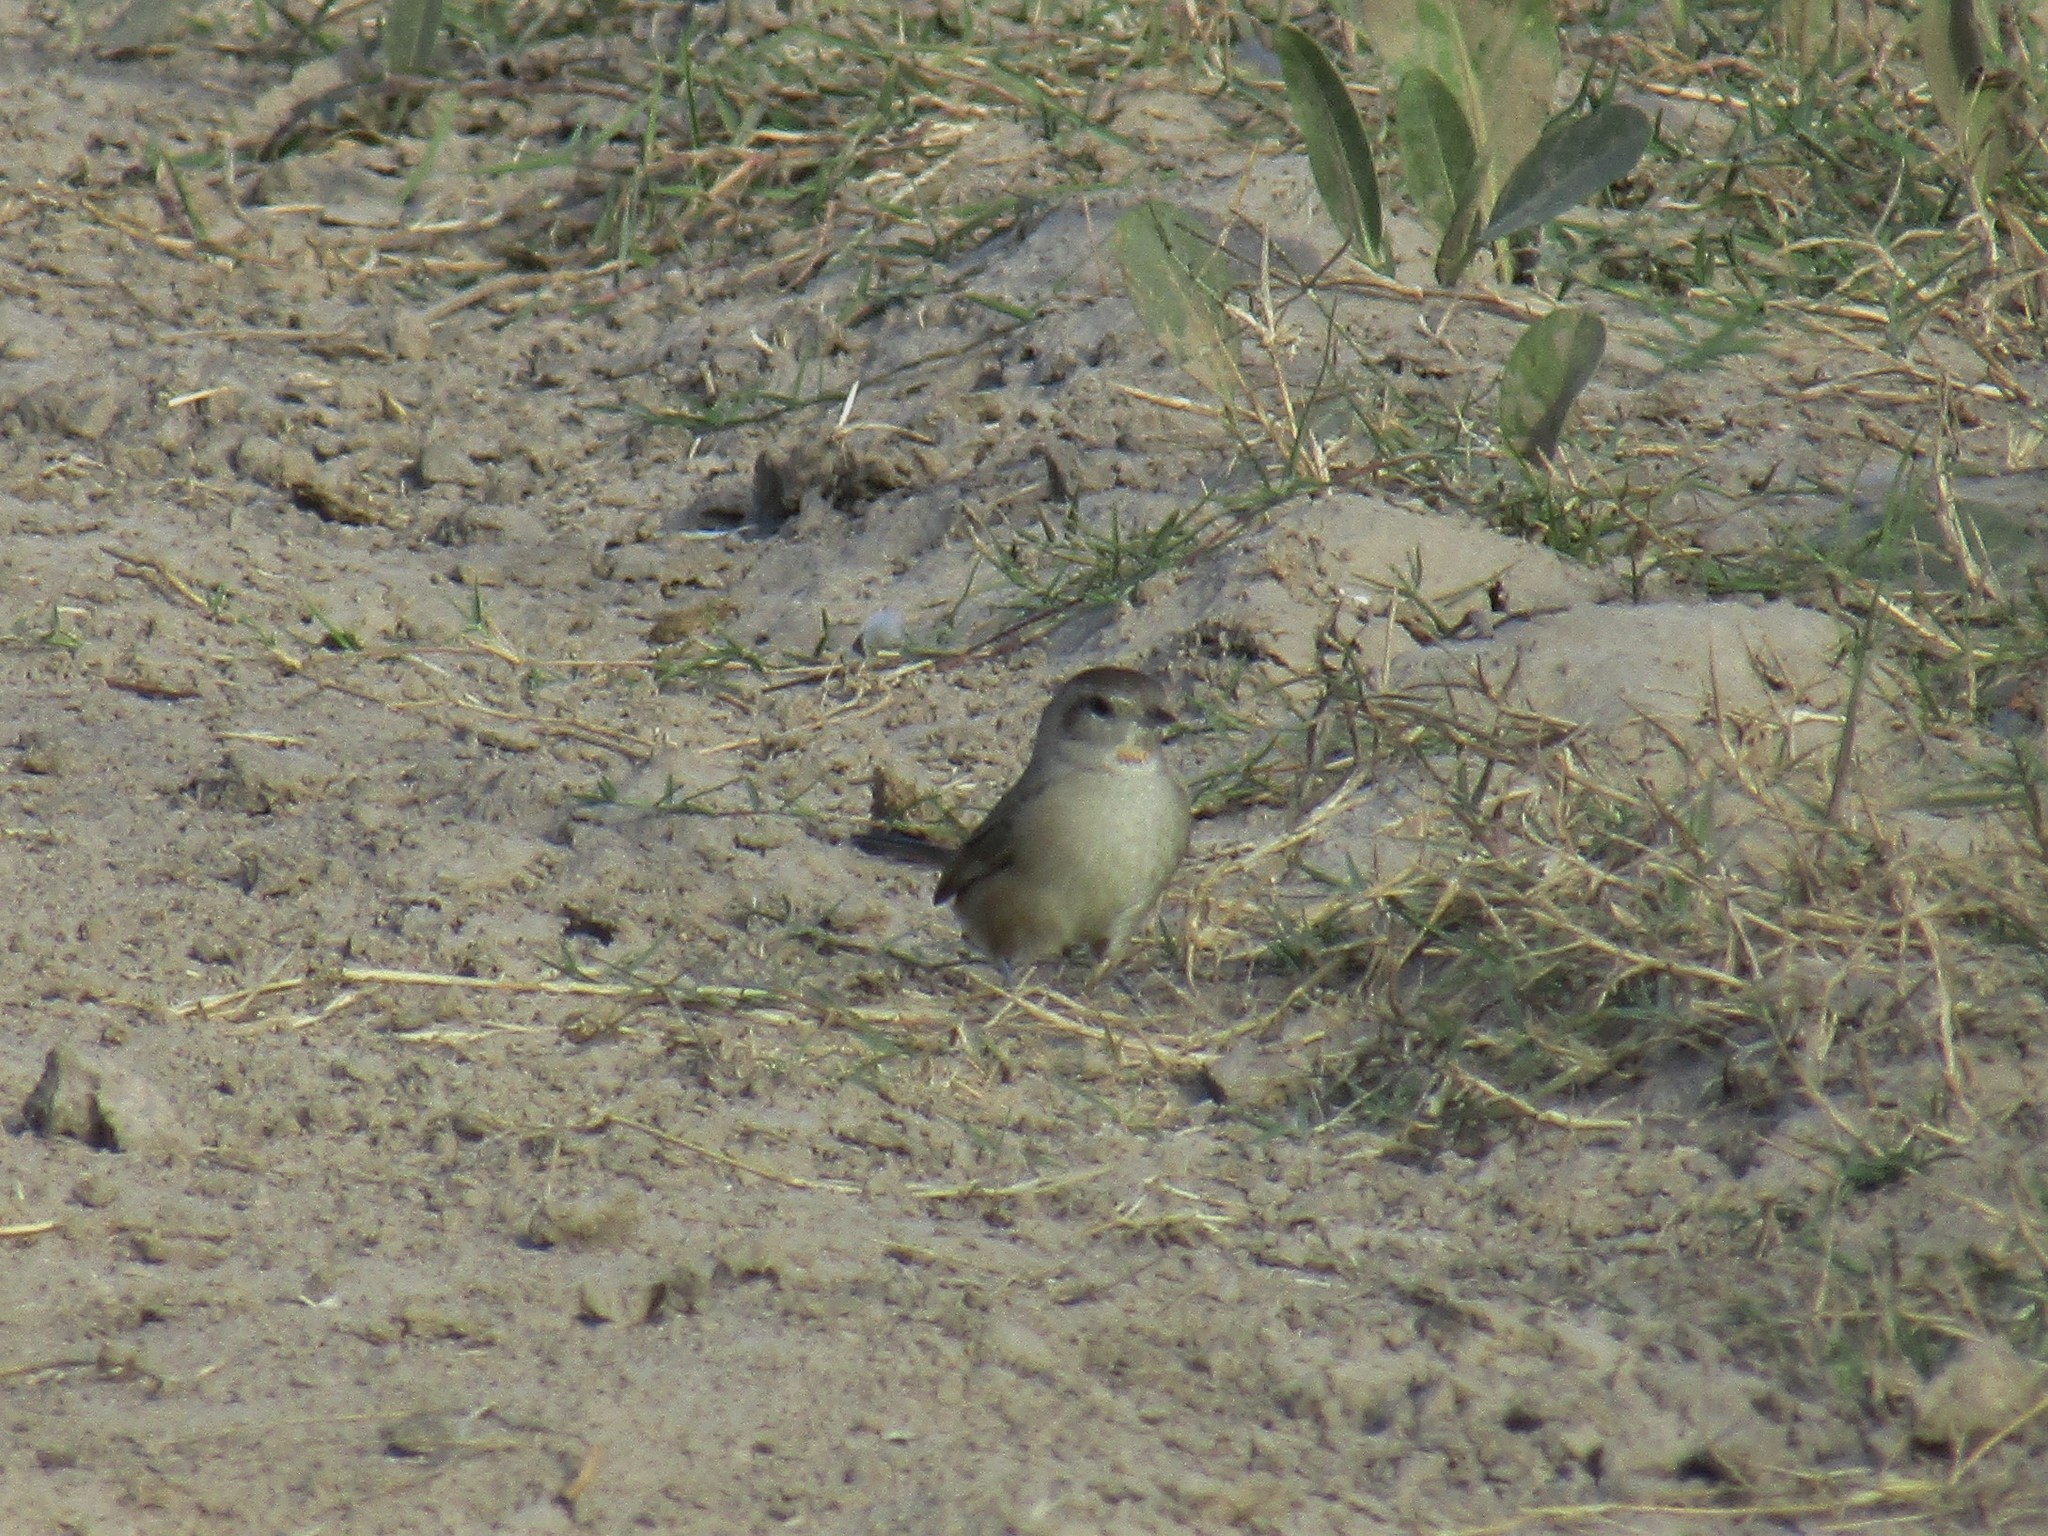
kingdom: Animalia
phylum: Chordata
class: Aves
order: Passeriformes
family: Furnariidae
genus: Asthenes
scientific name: Asthenes baeri
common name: Short-billed canastero
